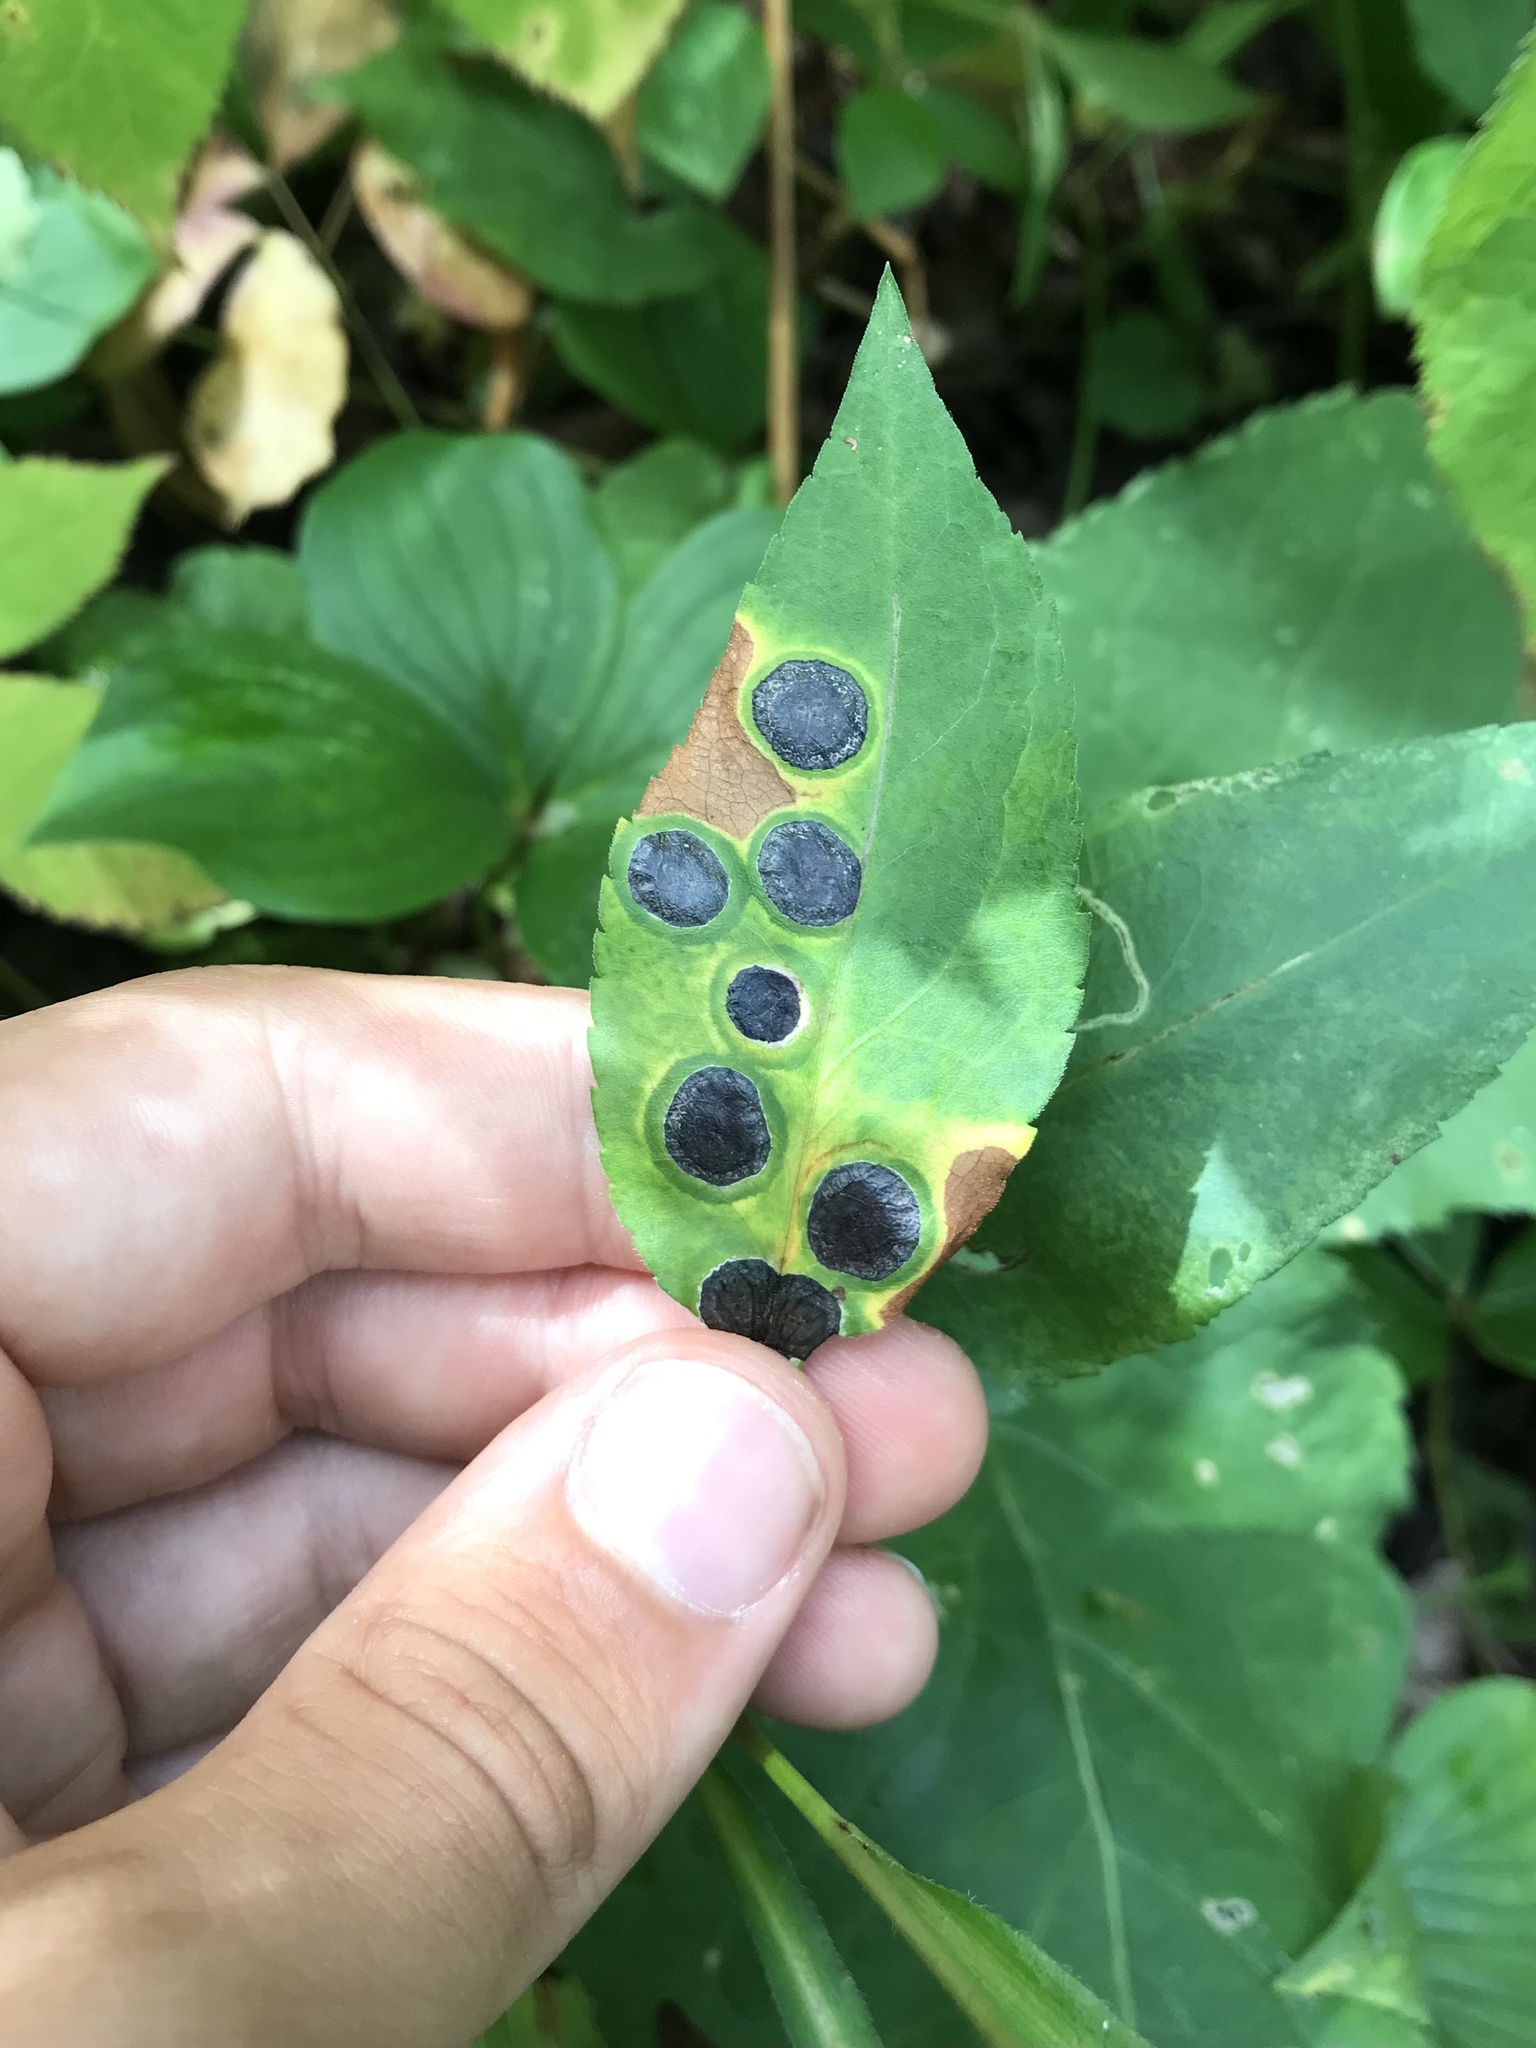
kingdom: Animalia
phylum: Arthropoda
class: Insecta
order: Diptera
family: Cecidomyiidae
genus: Asteromyia
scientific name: Asteromyia laeviana
